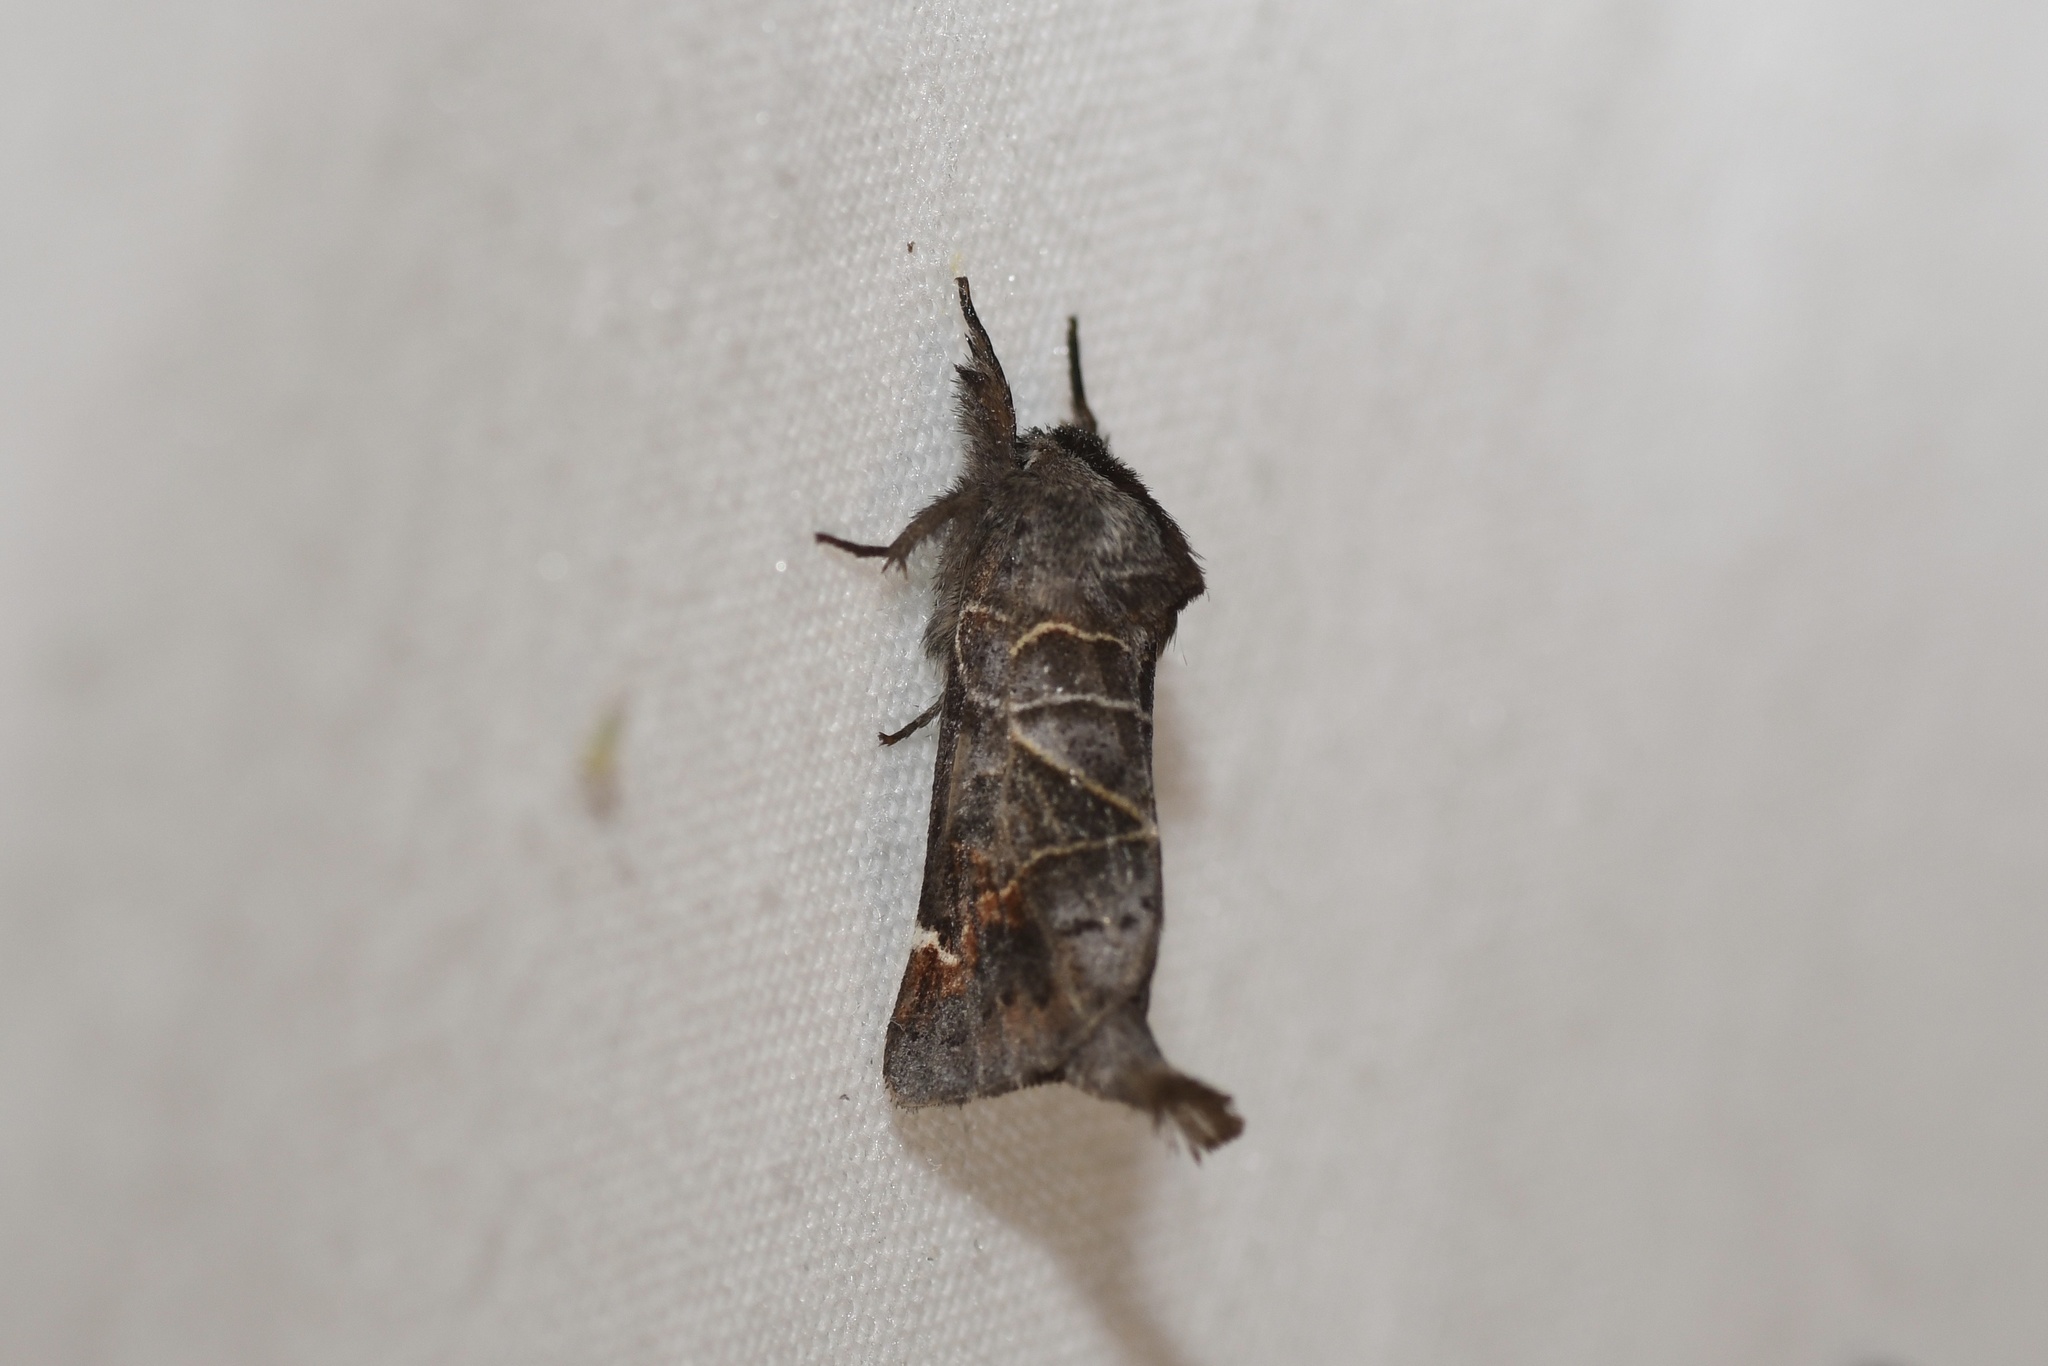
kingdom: Animalia
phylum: Arthropoda
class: Insecta
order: Lepidoptera
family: Notodontidae
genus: Clostera
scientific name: Clostera apicalis
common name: Apical prominent
